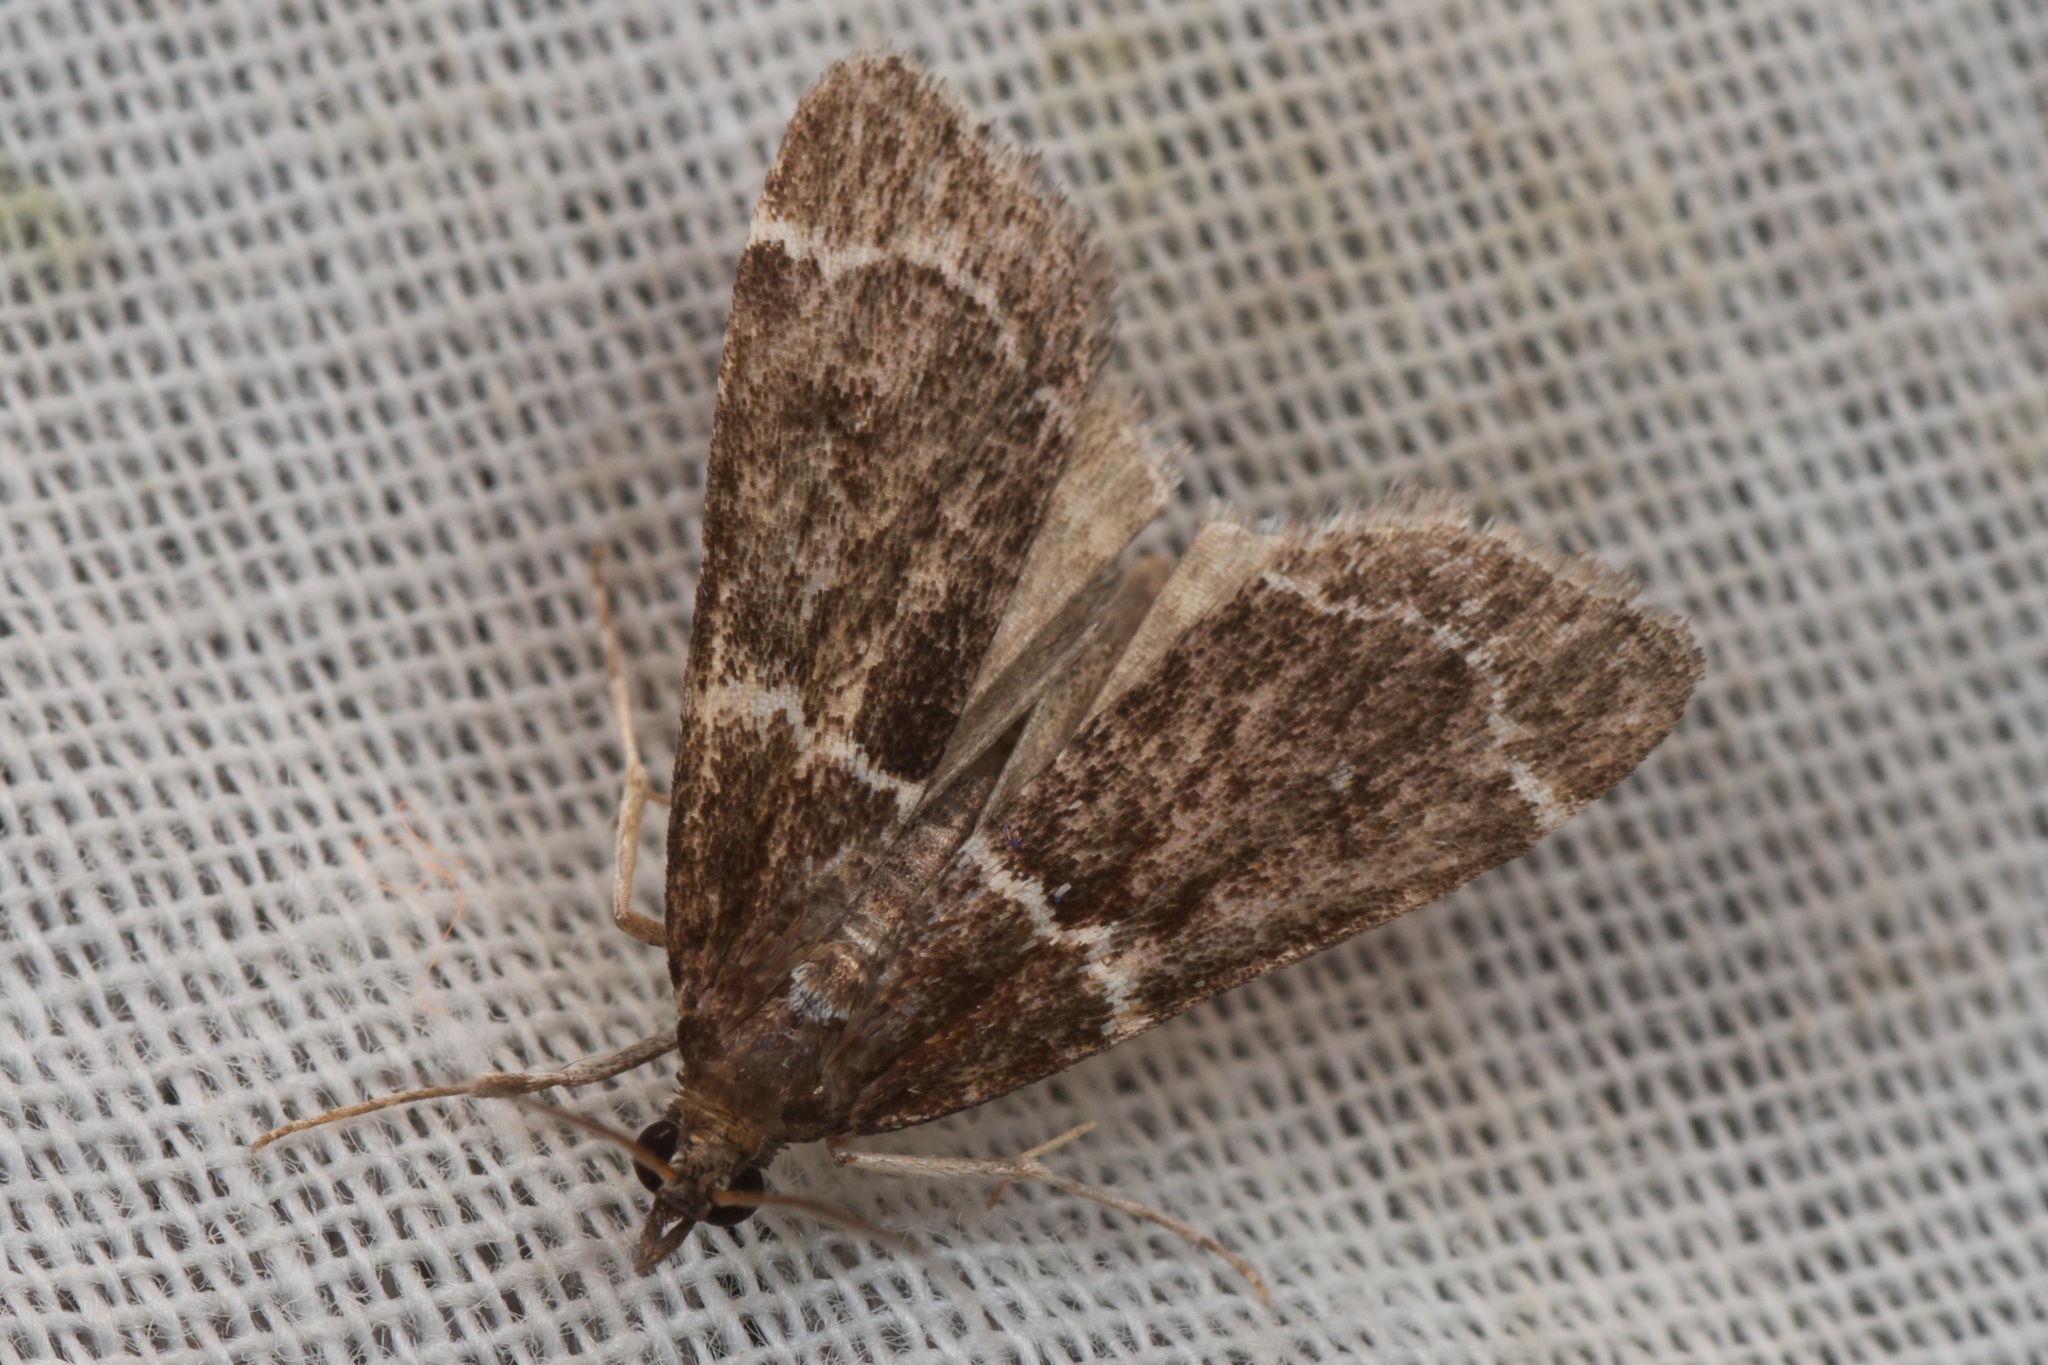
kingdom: Animalia
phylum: Arthropoda
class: Insecta
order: Lepidoptera
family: Crambidae
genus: Eudonia
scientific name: Eudonia leucogramma
